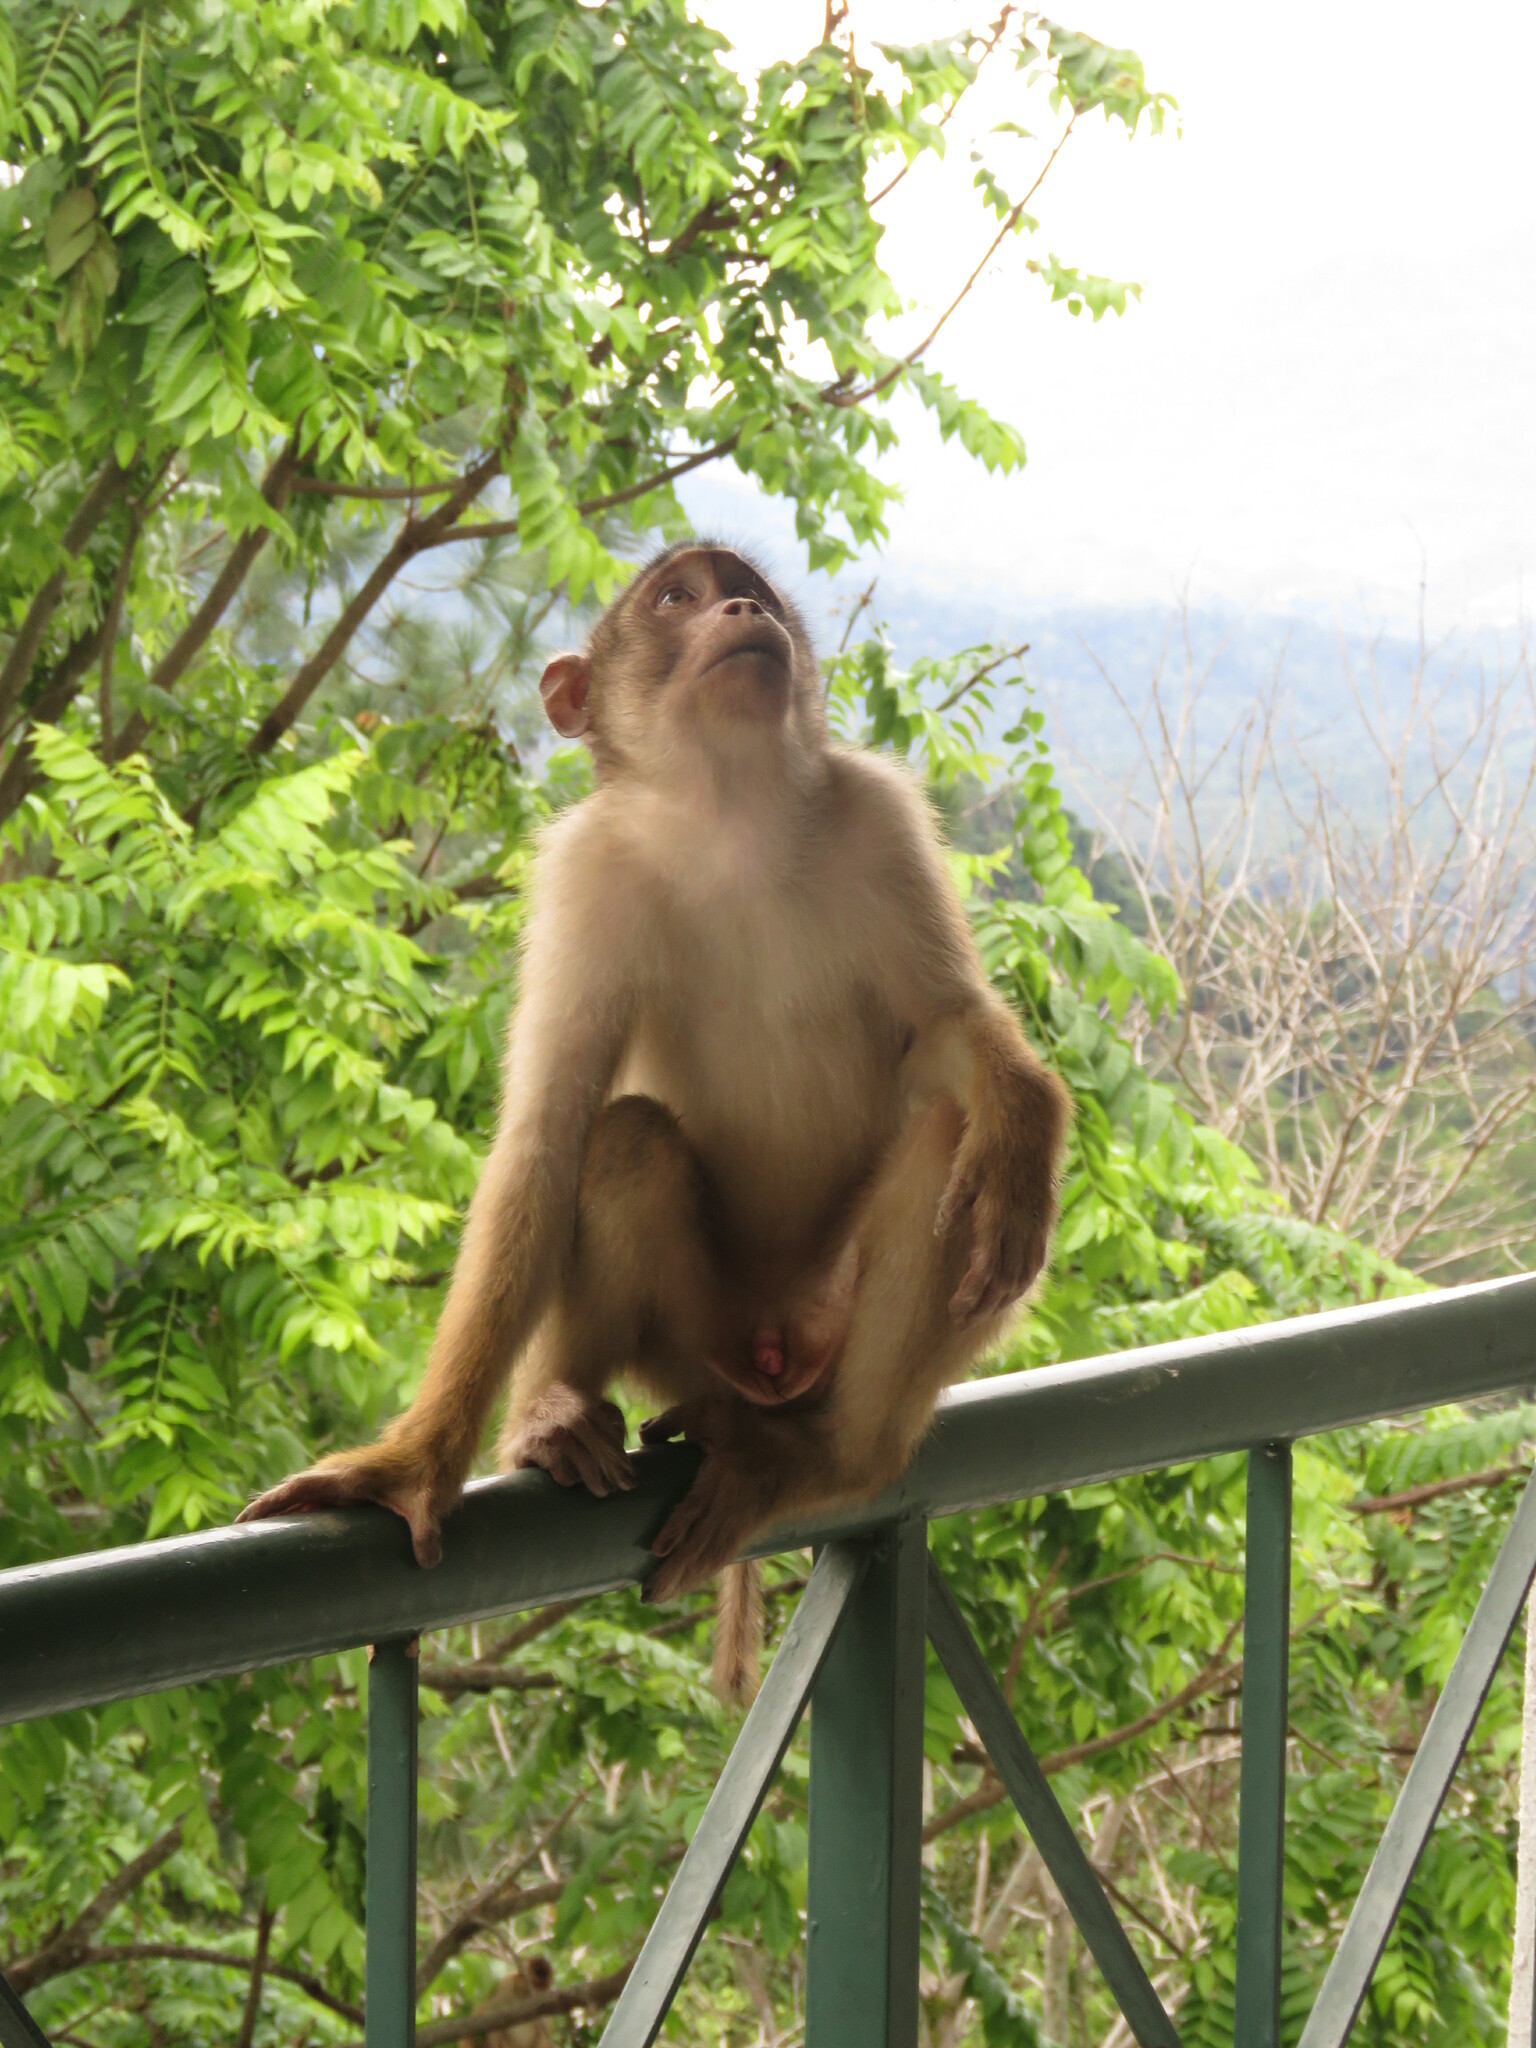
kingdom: Animalia
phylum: Chordata
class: Mammalia
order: Primates
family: Cercopithecidae
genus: Macaca
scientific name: Macaca nemestrina
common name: Southern pig-tailed macaque
